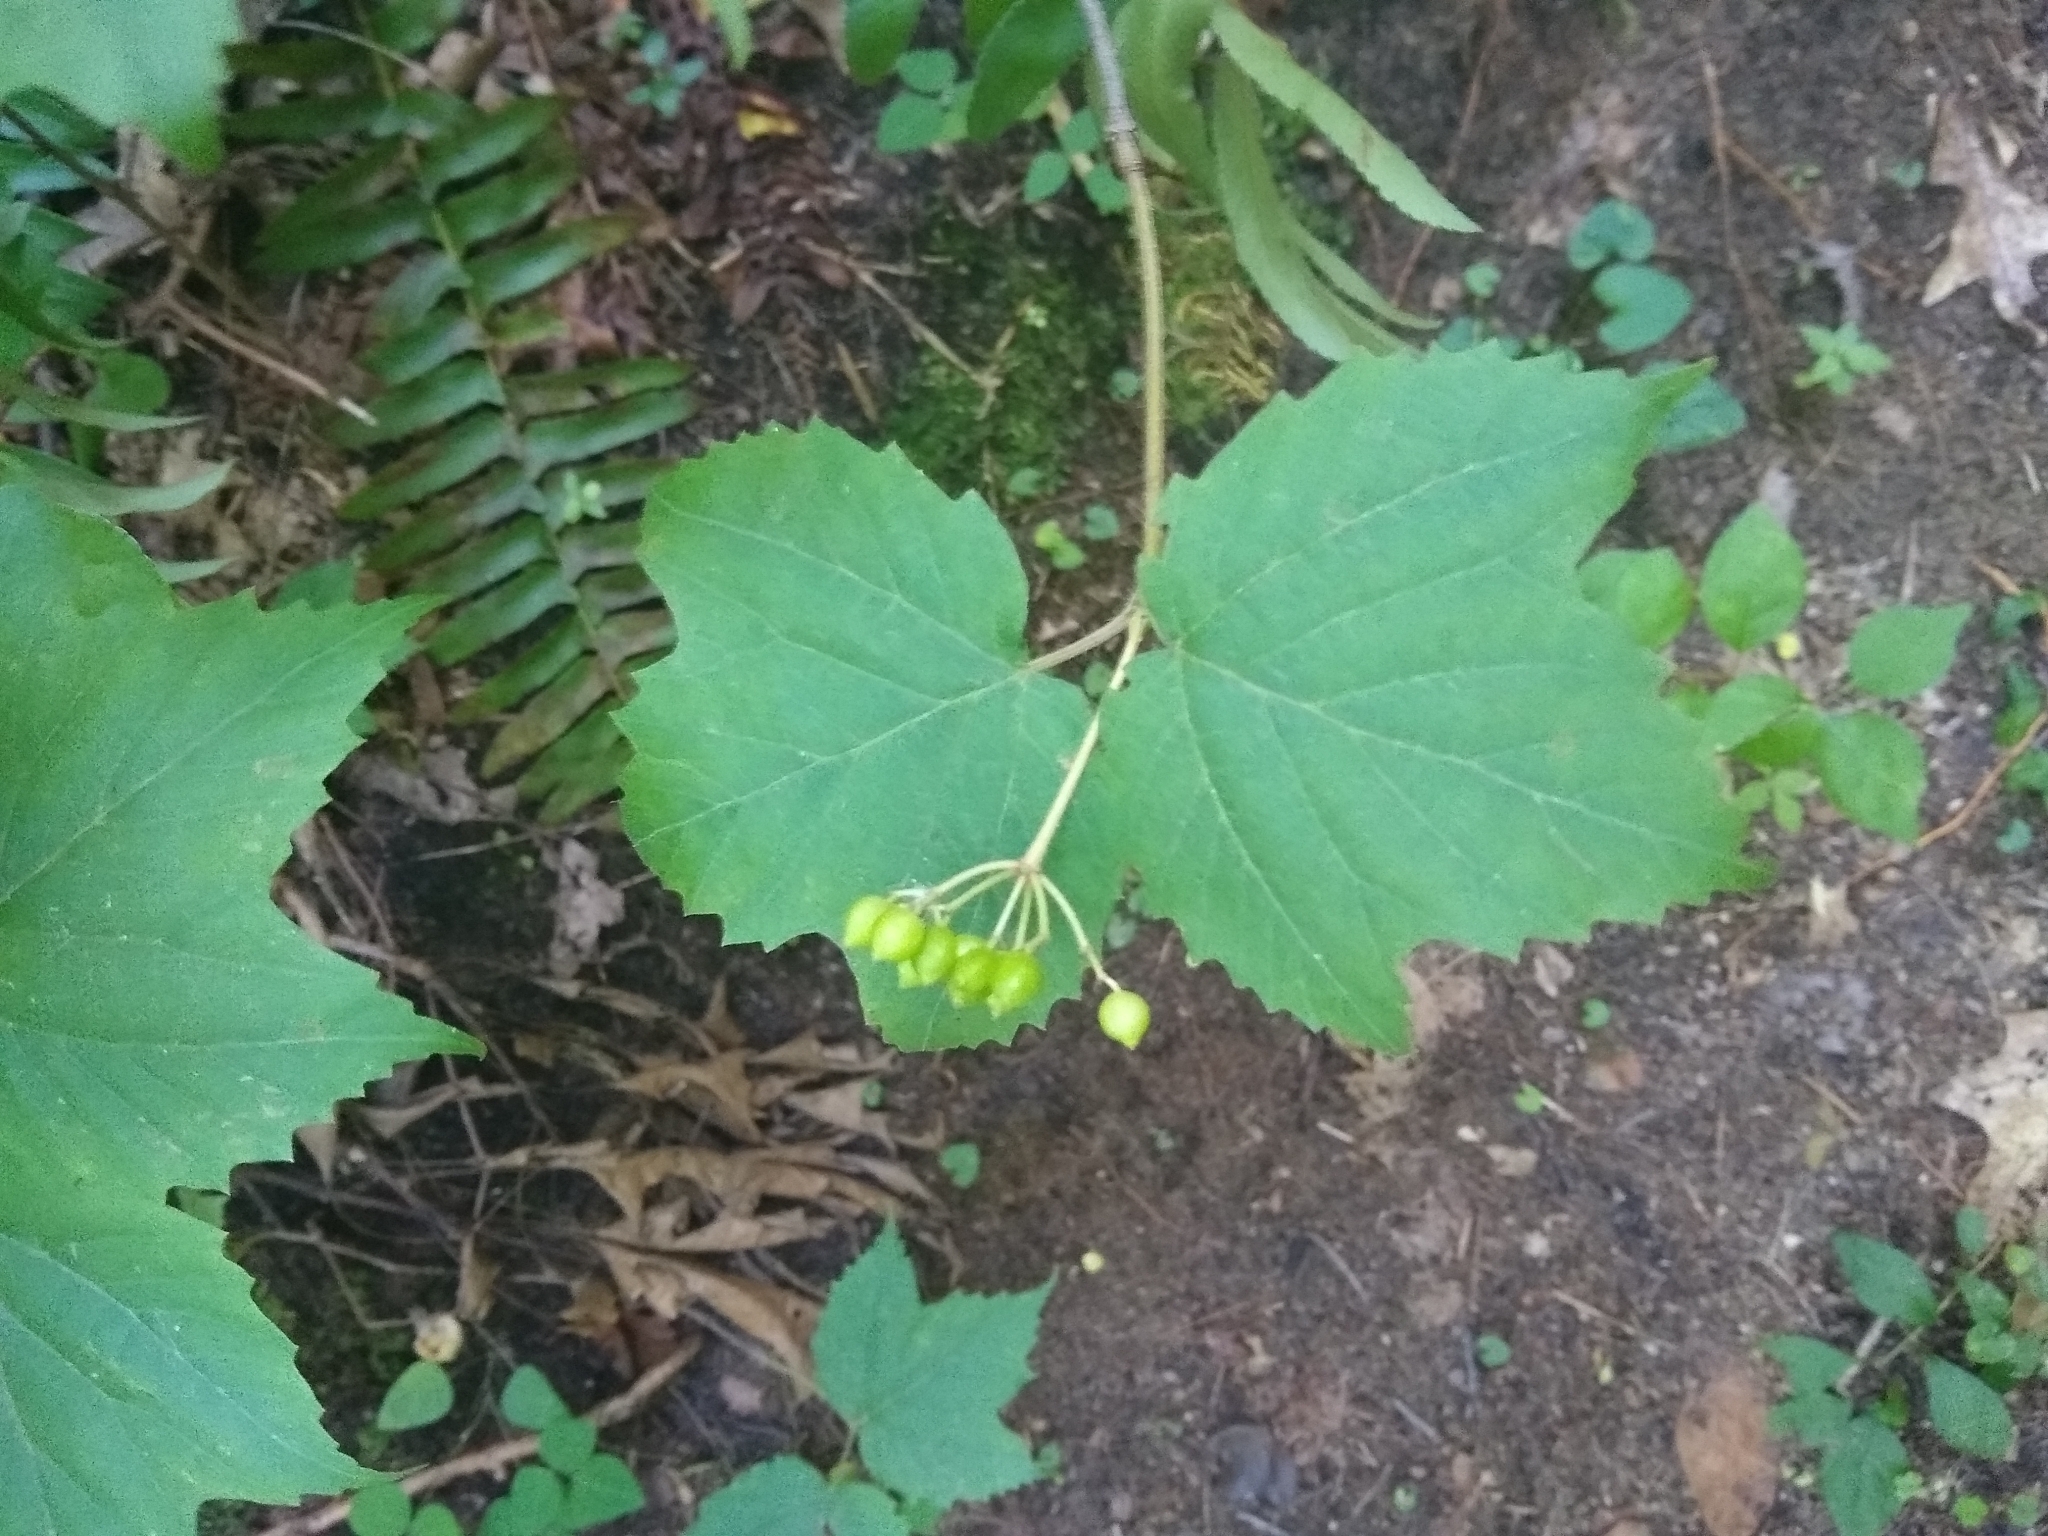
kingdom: Plantae
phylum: Tracheophyta
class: Magnoliopsida
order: Dipsacales
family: Viburnaceae
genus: Viburnum
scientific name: Viburnum acerifolium
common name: Dockmackie
